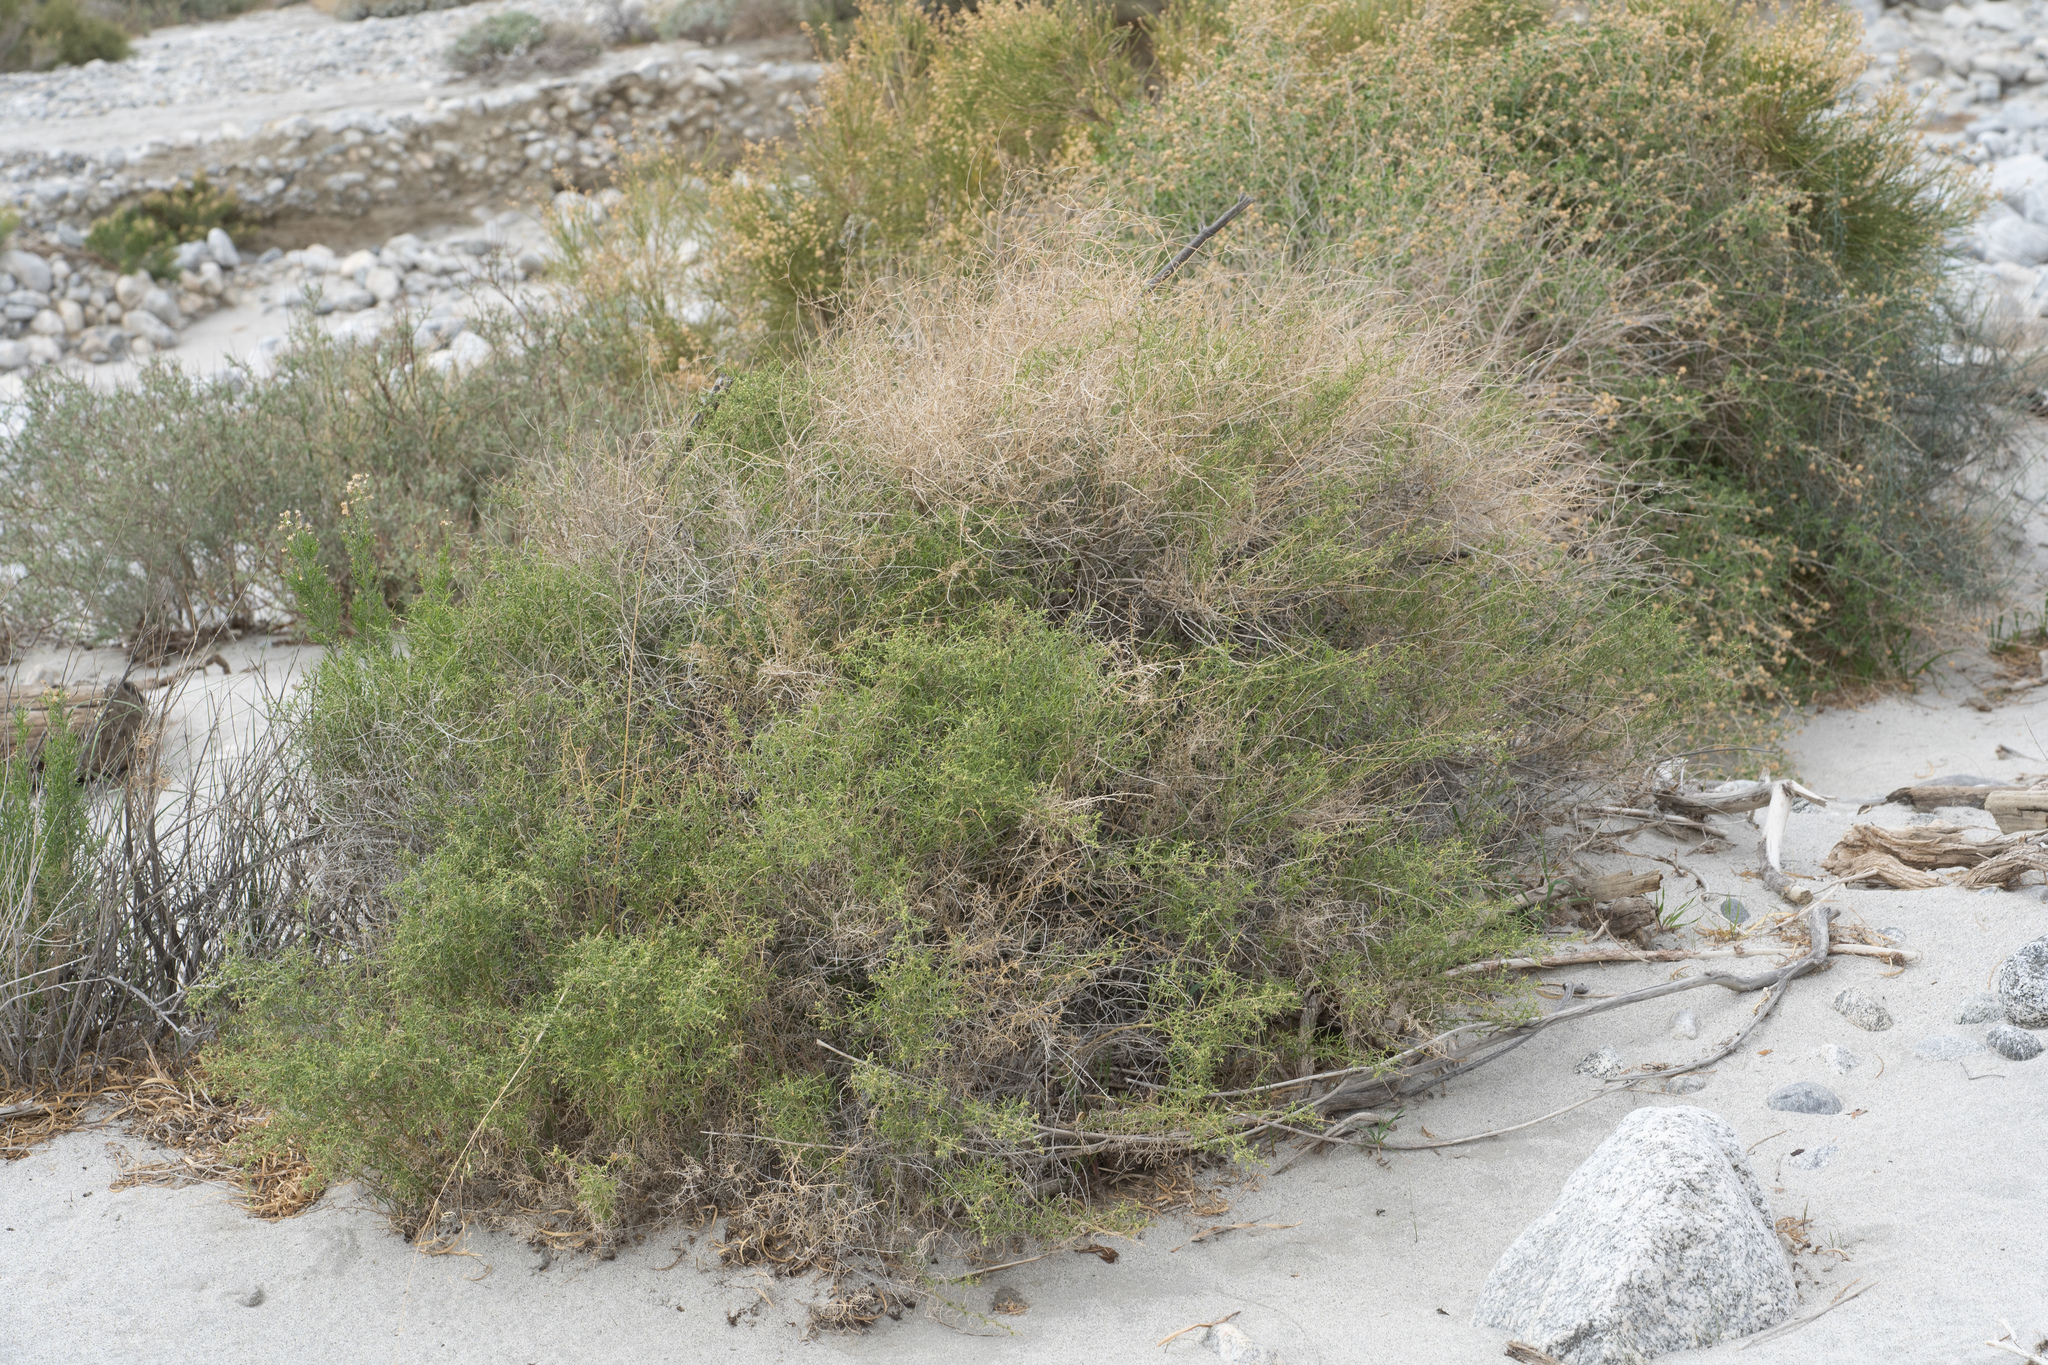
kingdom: Plantae
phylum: Tracheophyta
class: Magnoliopsida
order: Asterales
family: Asteraceae
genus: Ambrosia
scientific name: Ambrosia salsola
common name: Burrobrush
